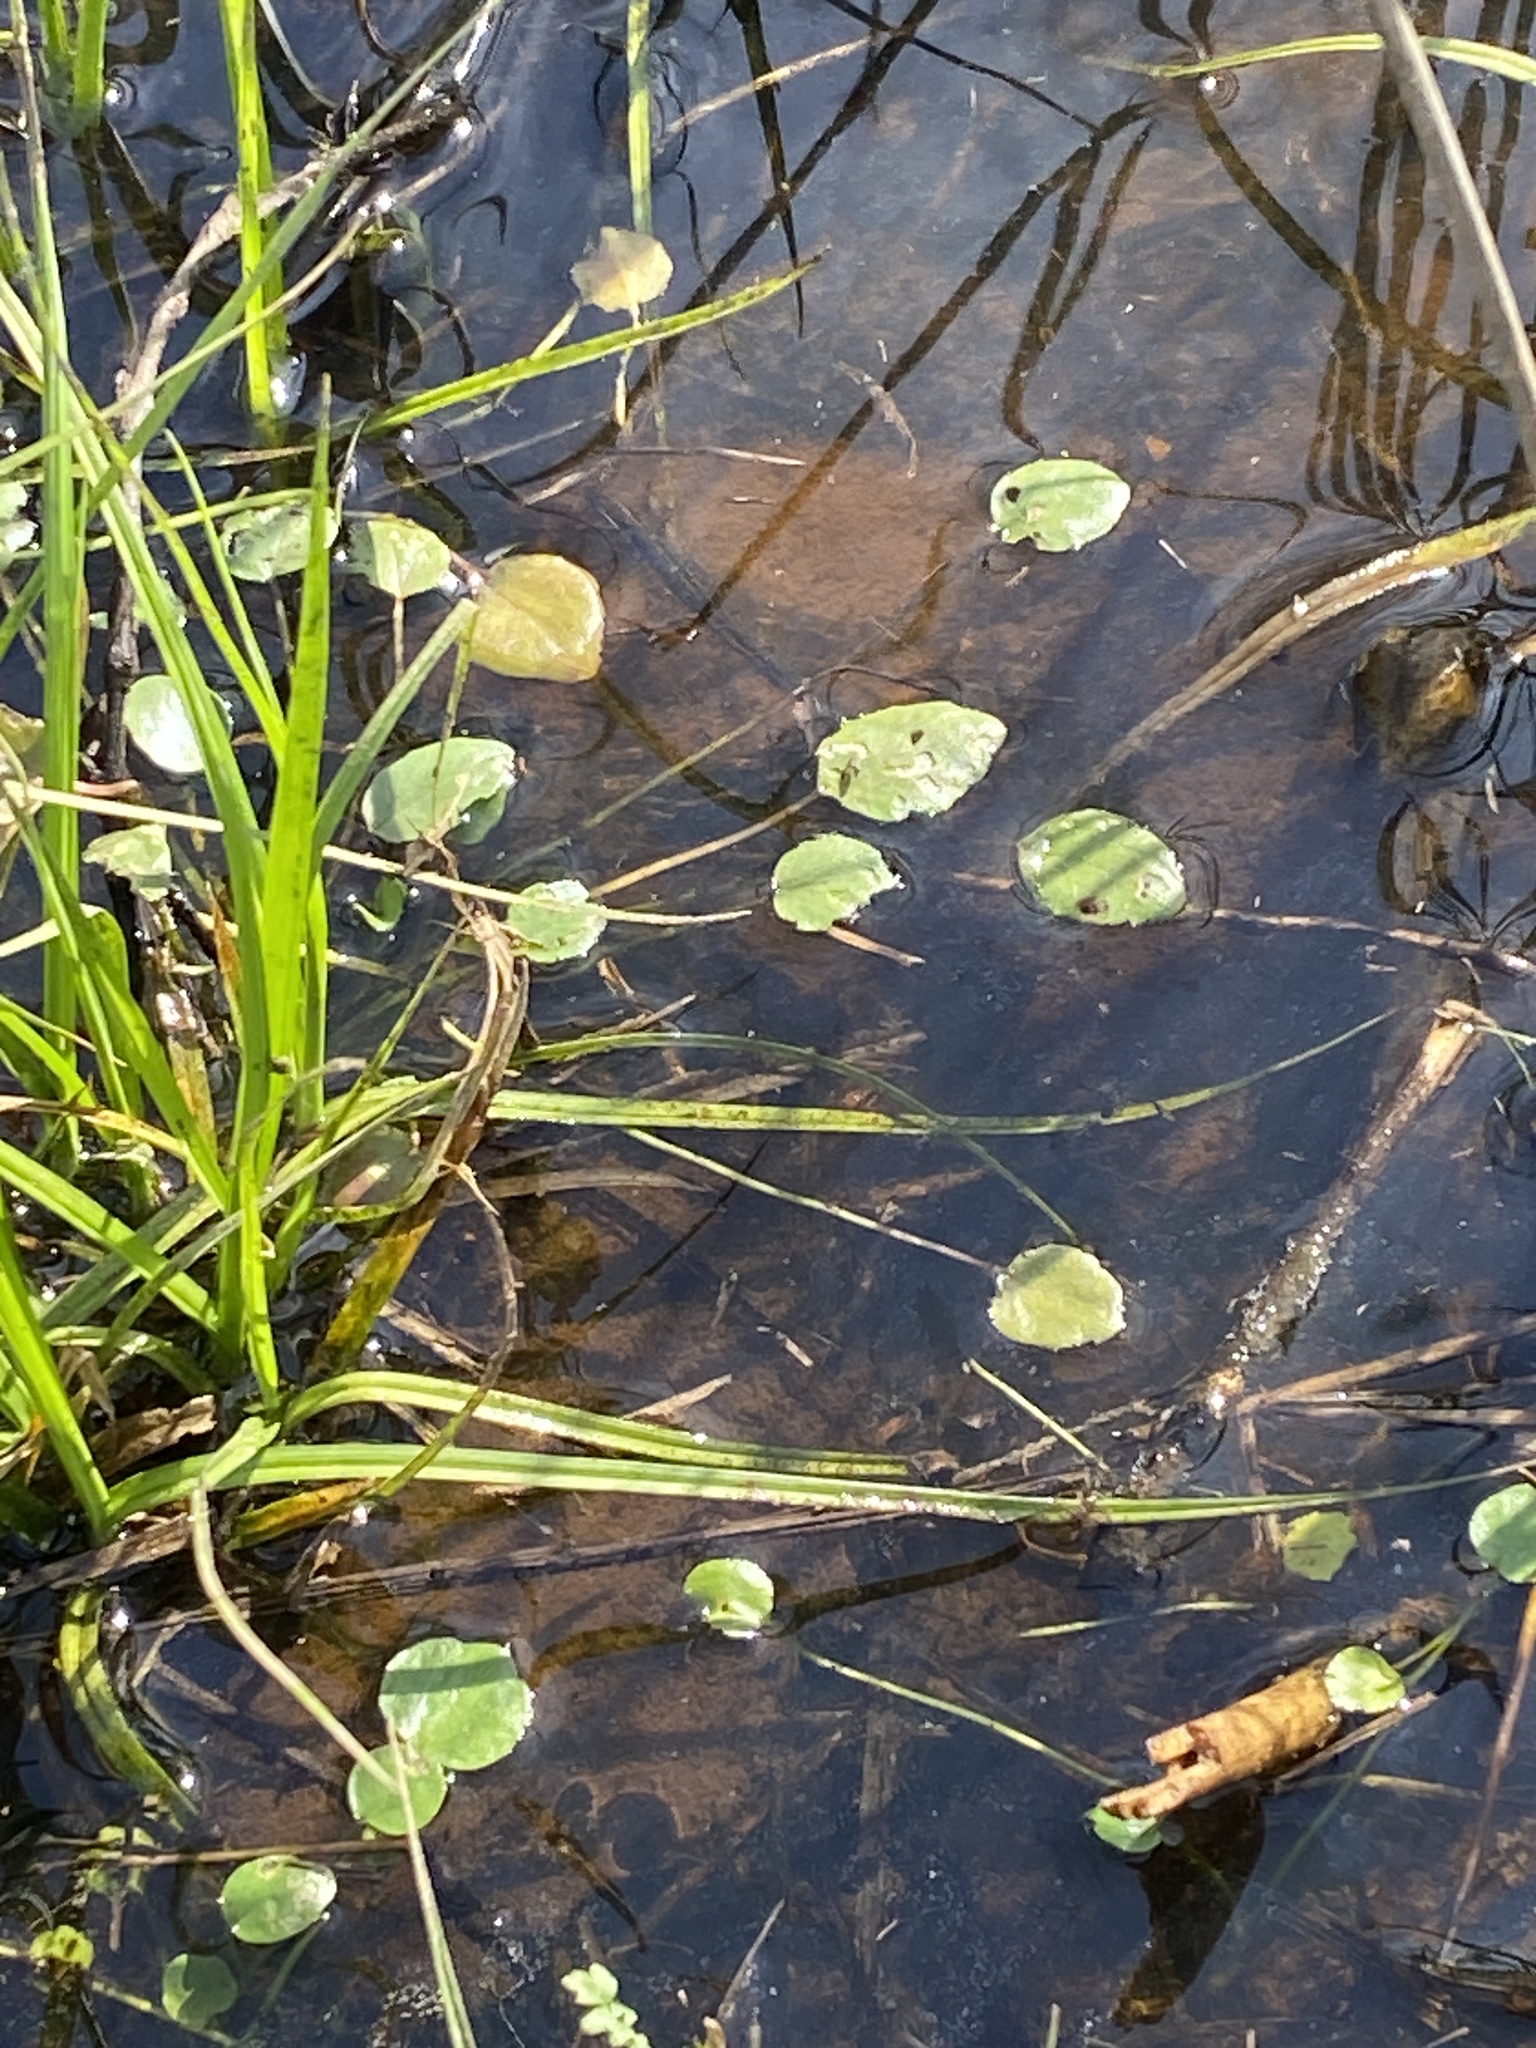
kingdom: Plantae
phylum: Tracheophyta
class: Magnoliopsida
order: Ranunculales
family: Ranunculaceae
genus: Ranunculus
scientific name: Ranunculus pusillus
